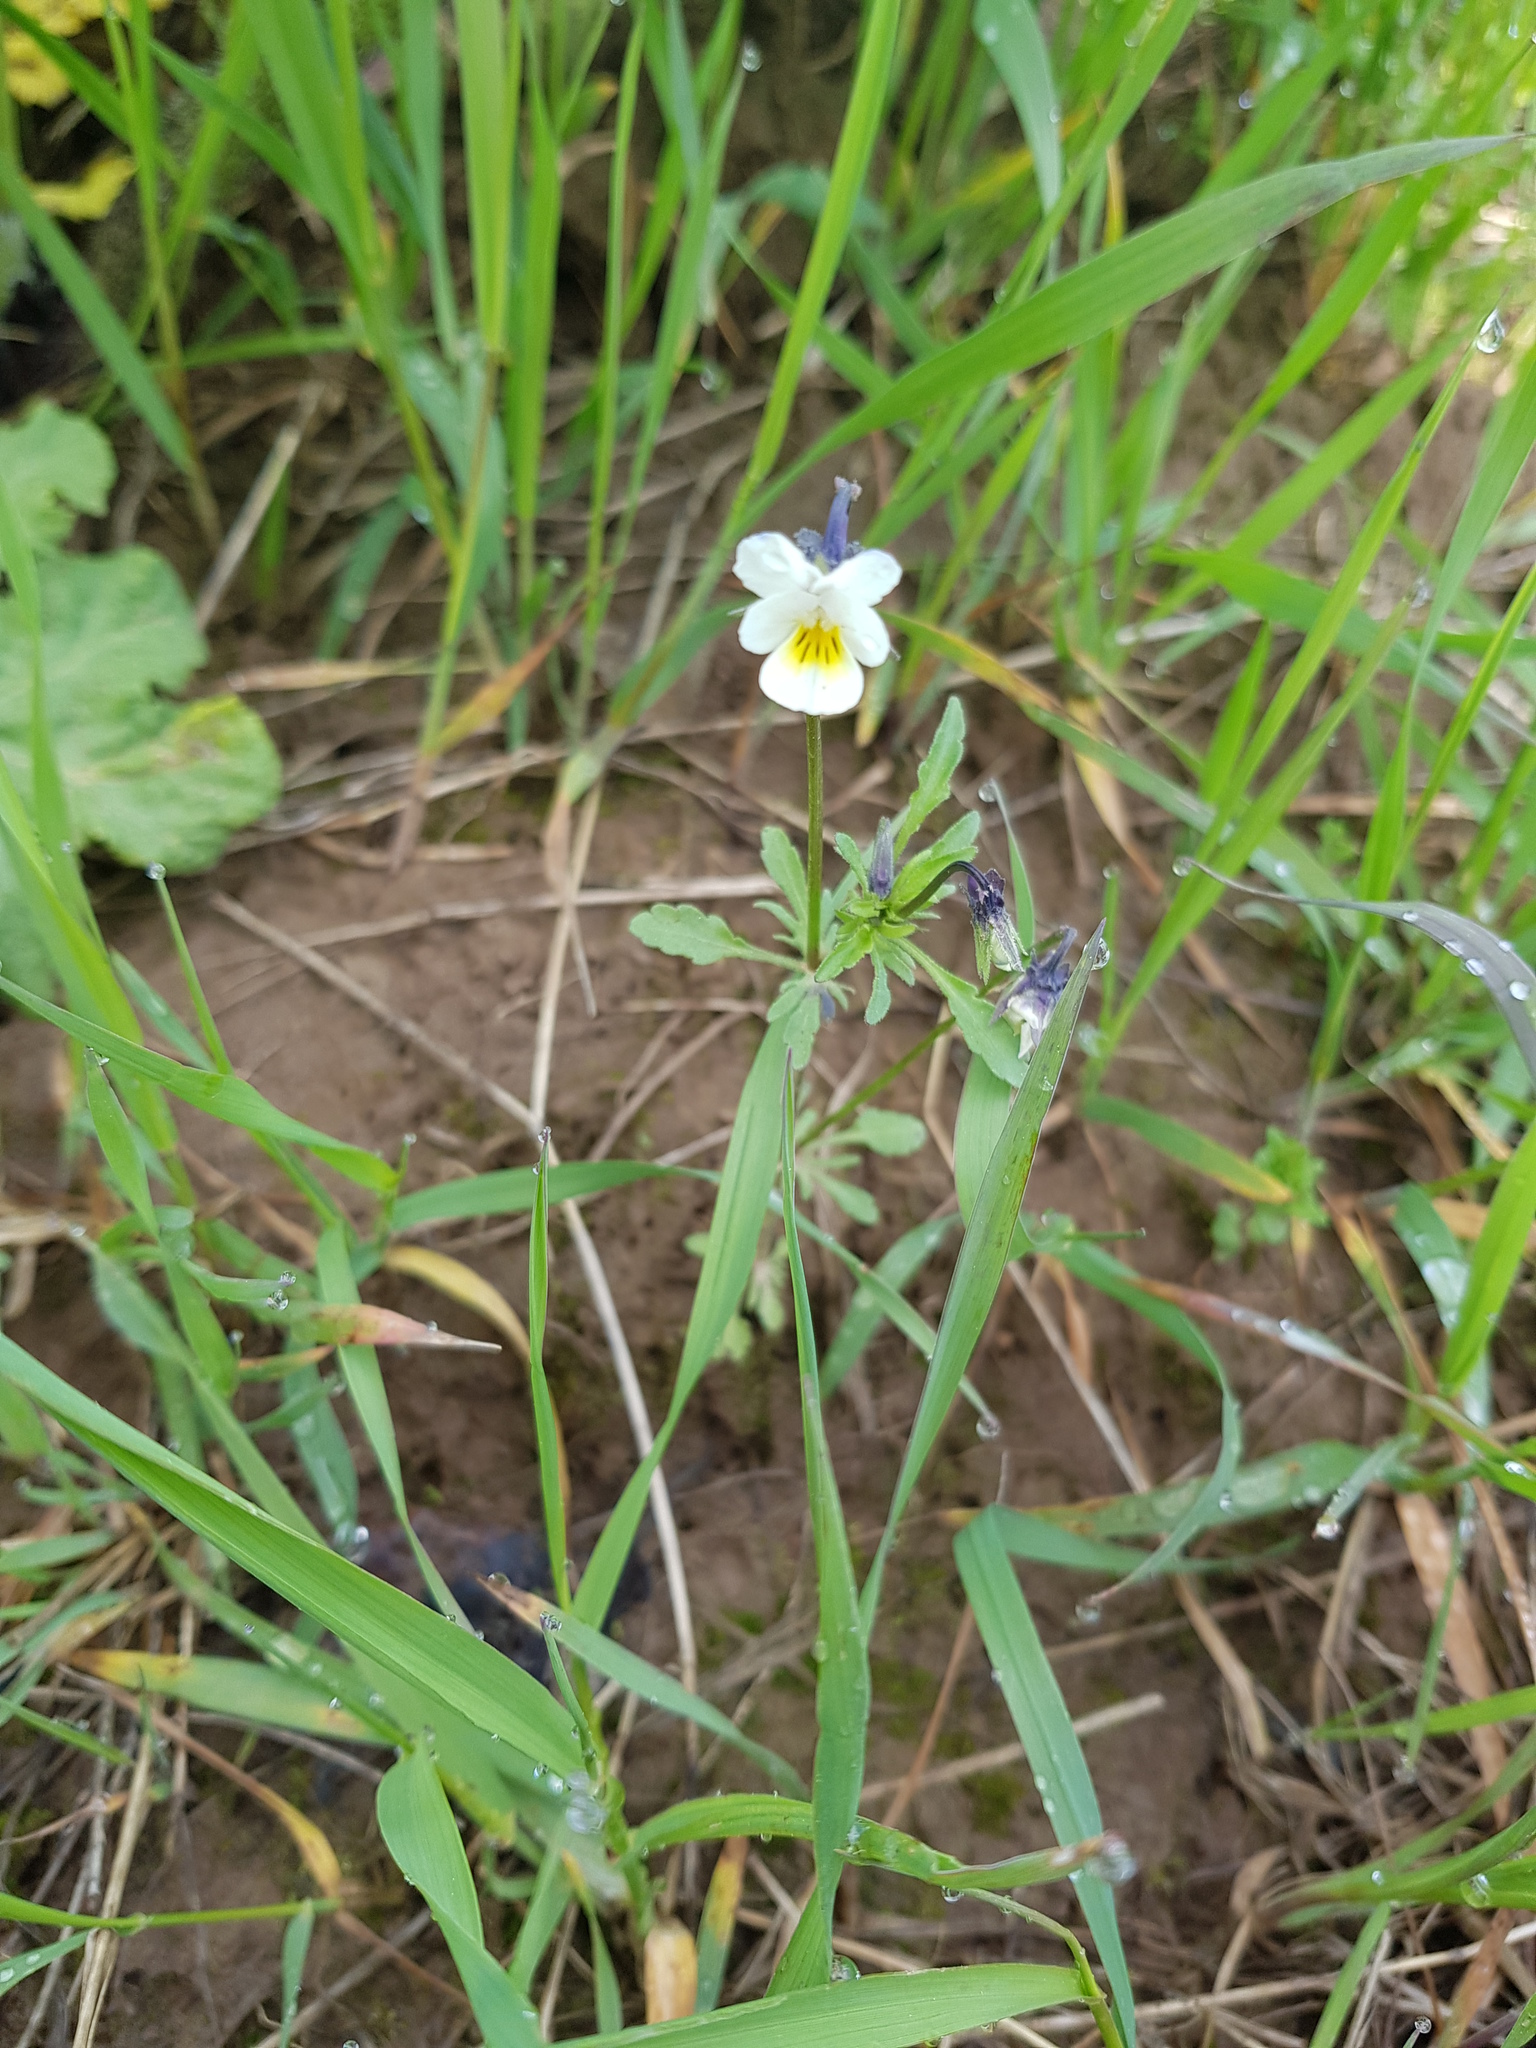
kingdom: Plantae
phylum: Tracheophyta
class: Magnoliopsida
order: Malpighiales
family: Violaceae
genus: Viola
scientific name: Viola arvensis
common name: Field pansy
